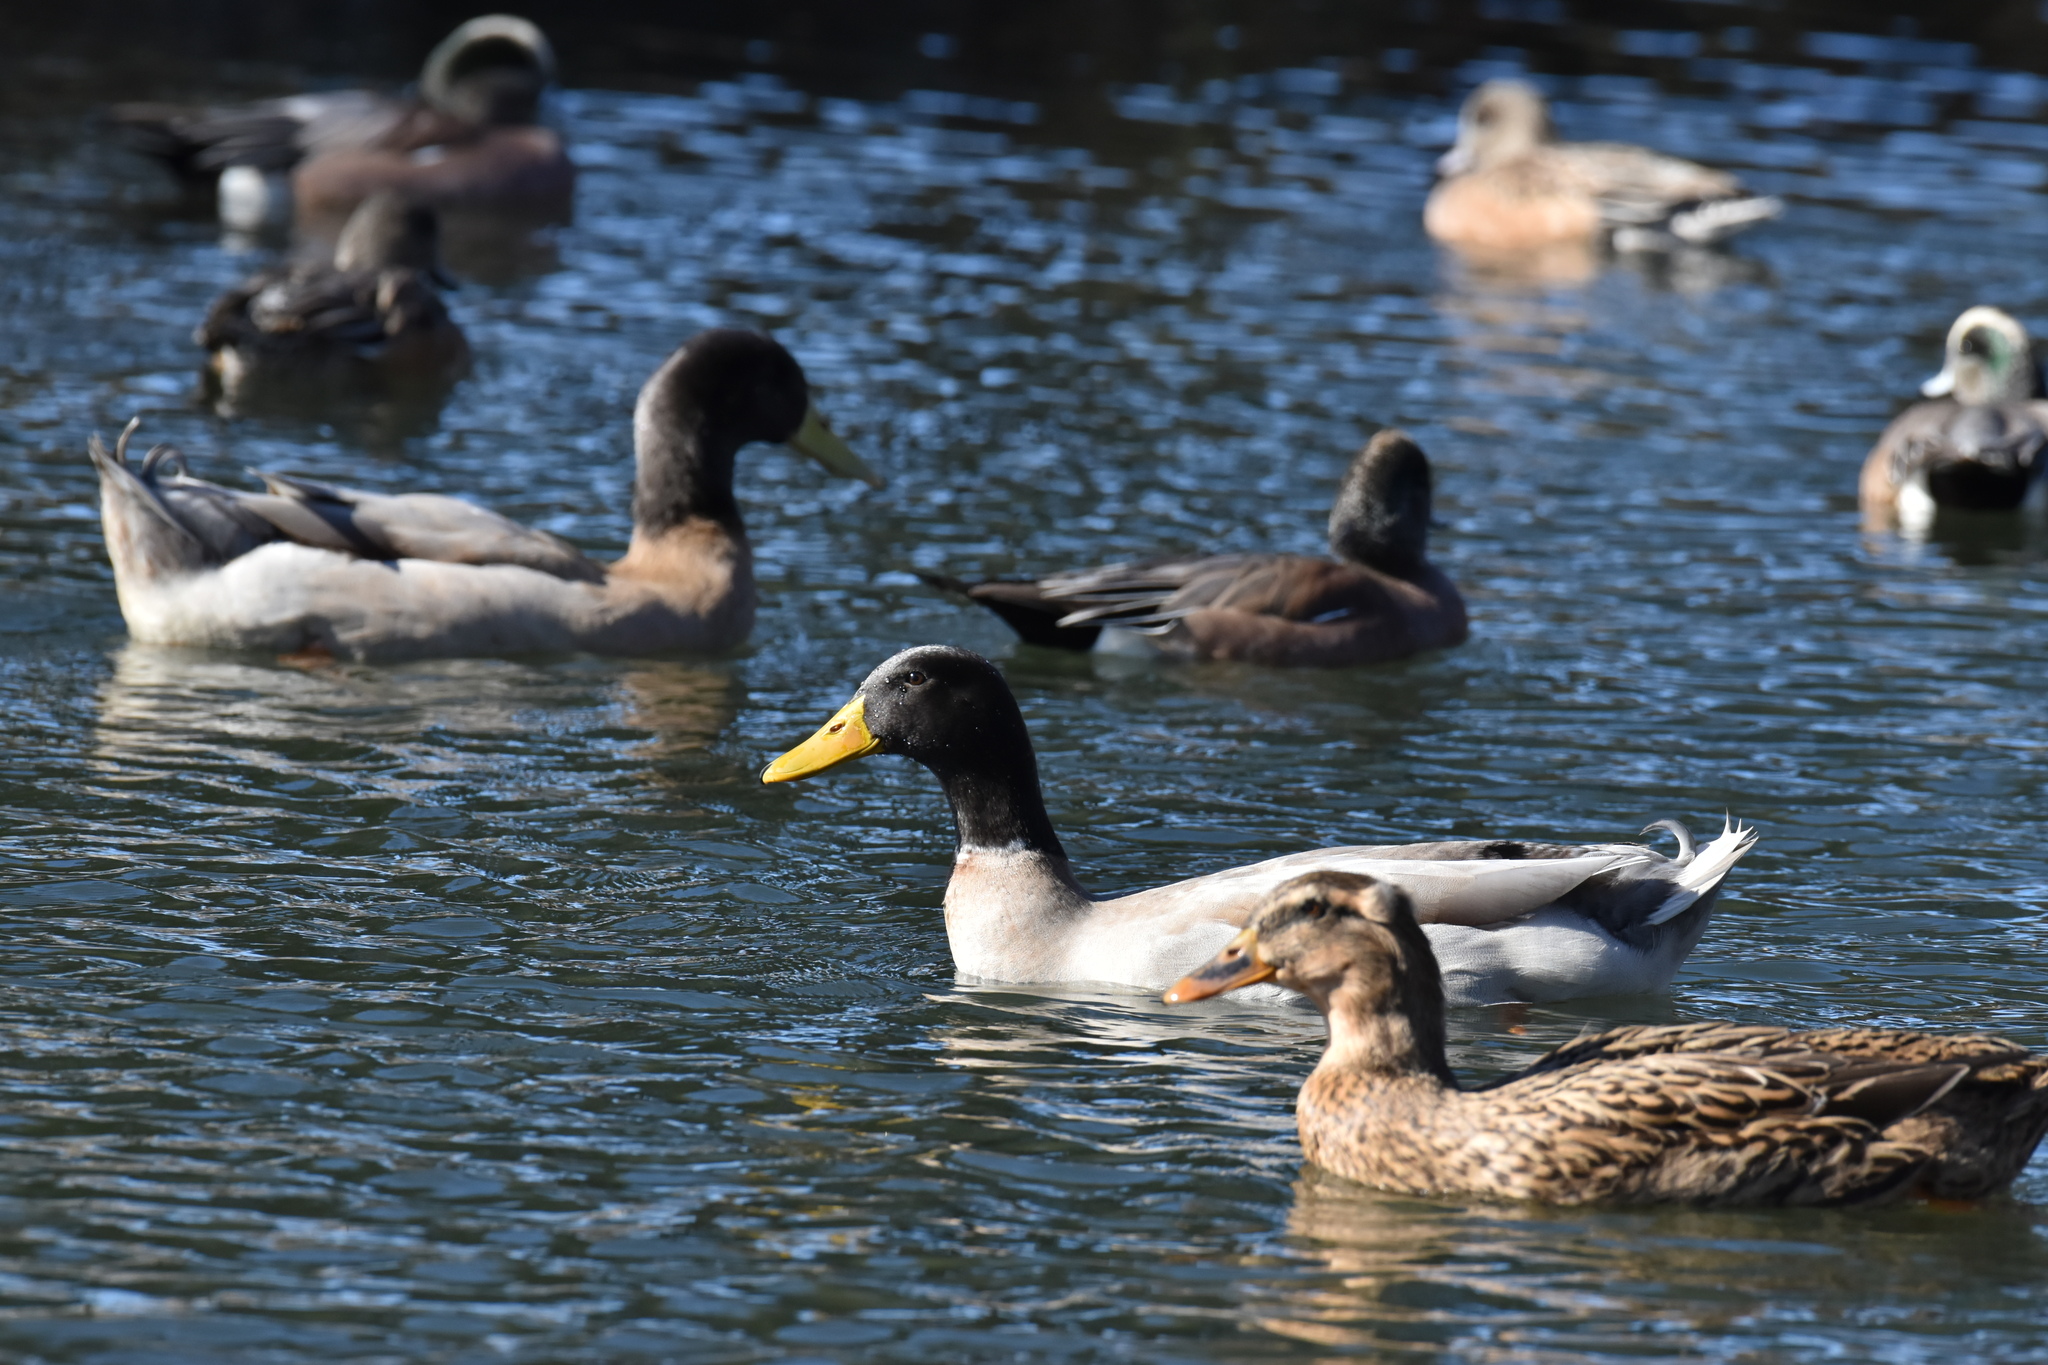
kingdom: Animalia
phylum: Chordata
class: Aves
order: Anseriformes
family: Anatidae
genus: Anas
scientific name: Anas platyrhynchos
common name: Mallard
